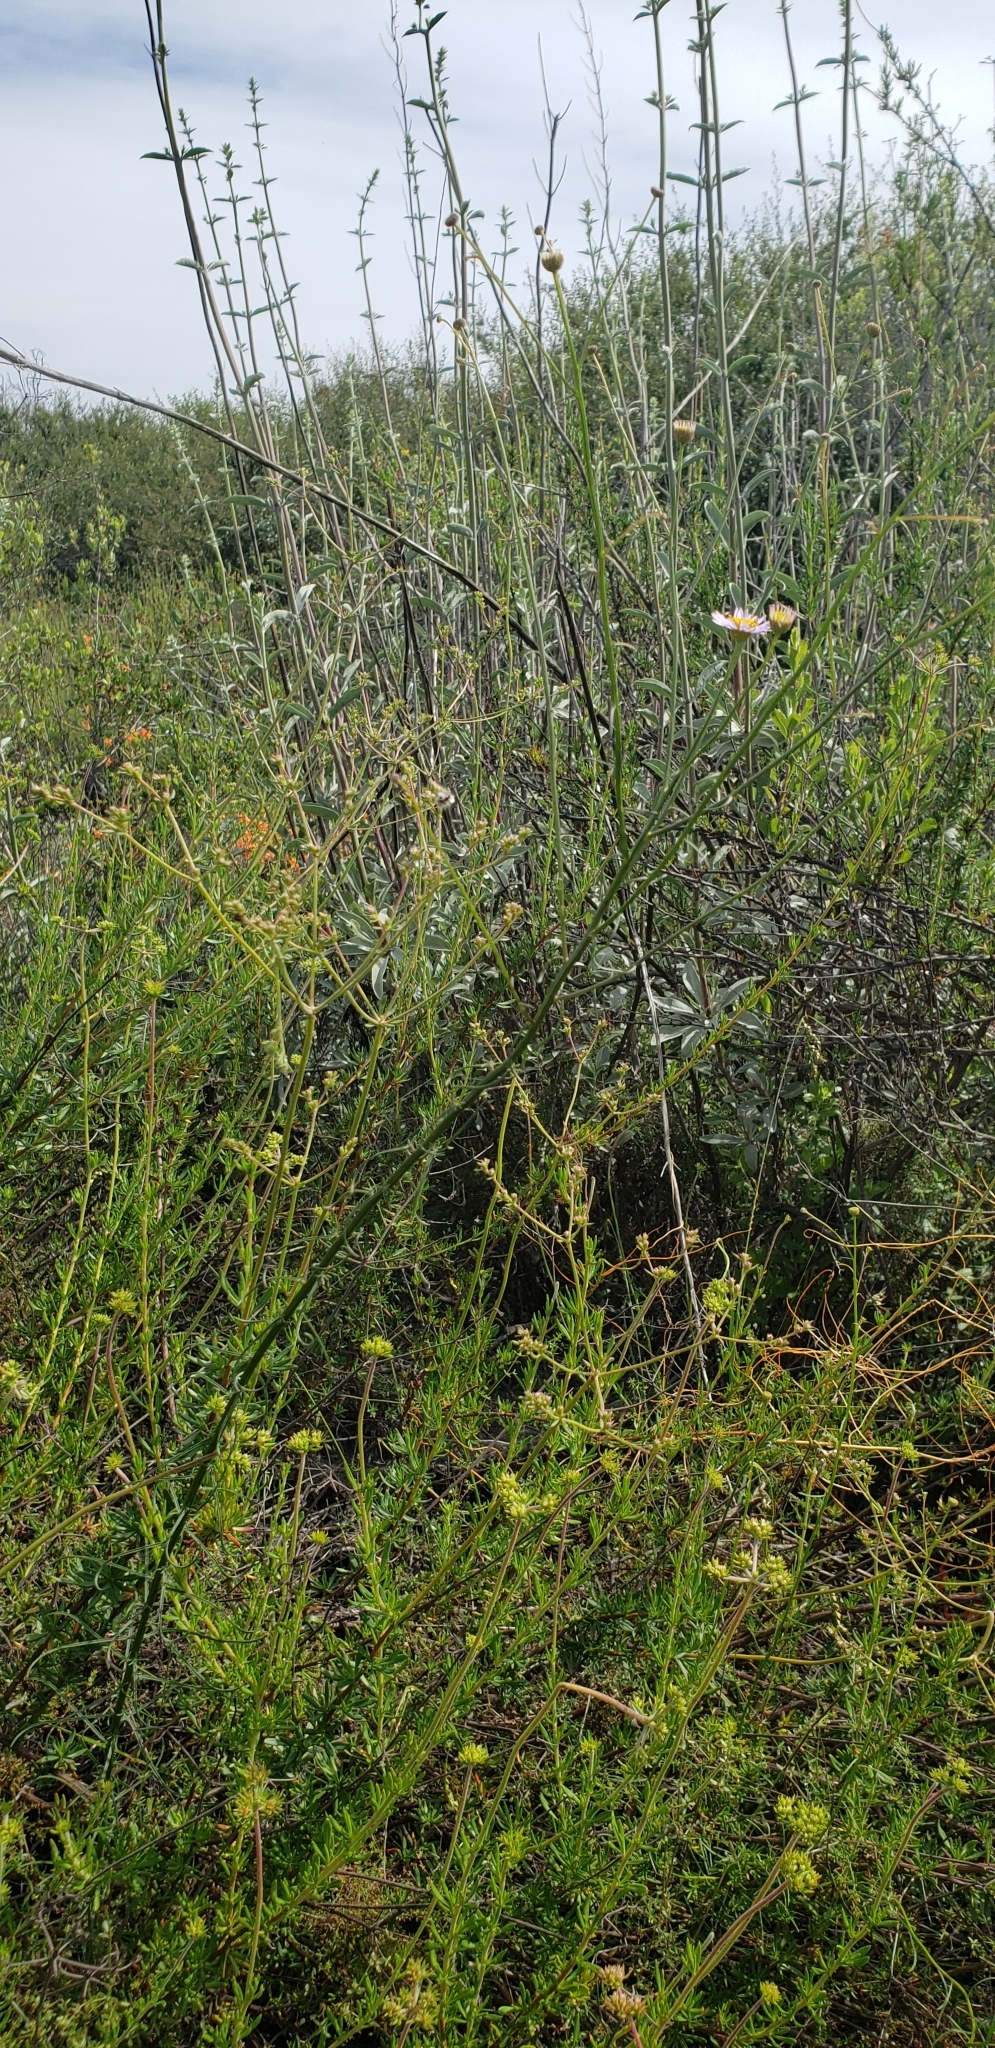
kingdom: Plantae
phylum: Tracheophyta
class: Magnoliopsida
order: Asterales
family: Asteraceae
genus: Erigeron
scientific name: Erigeron foliosus
